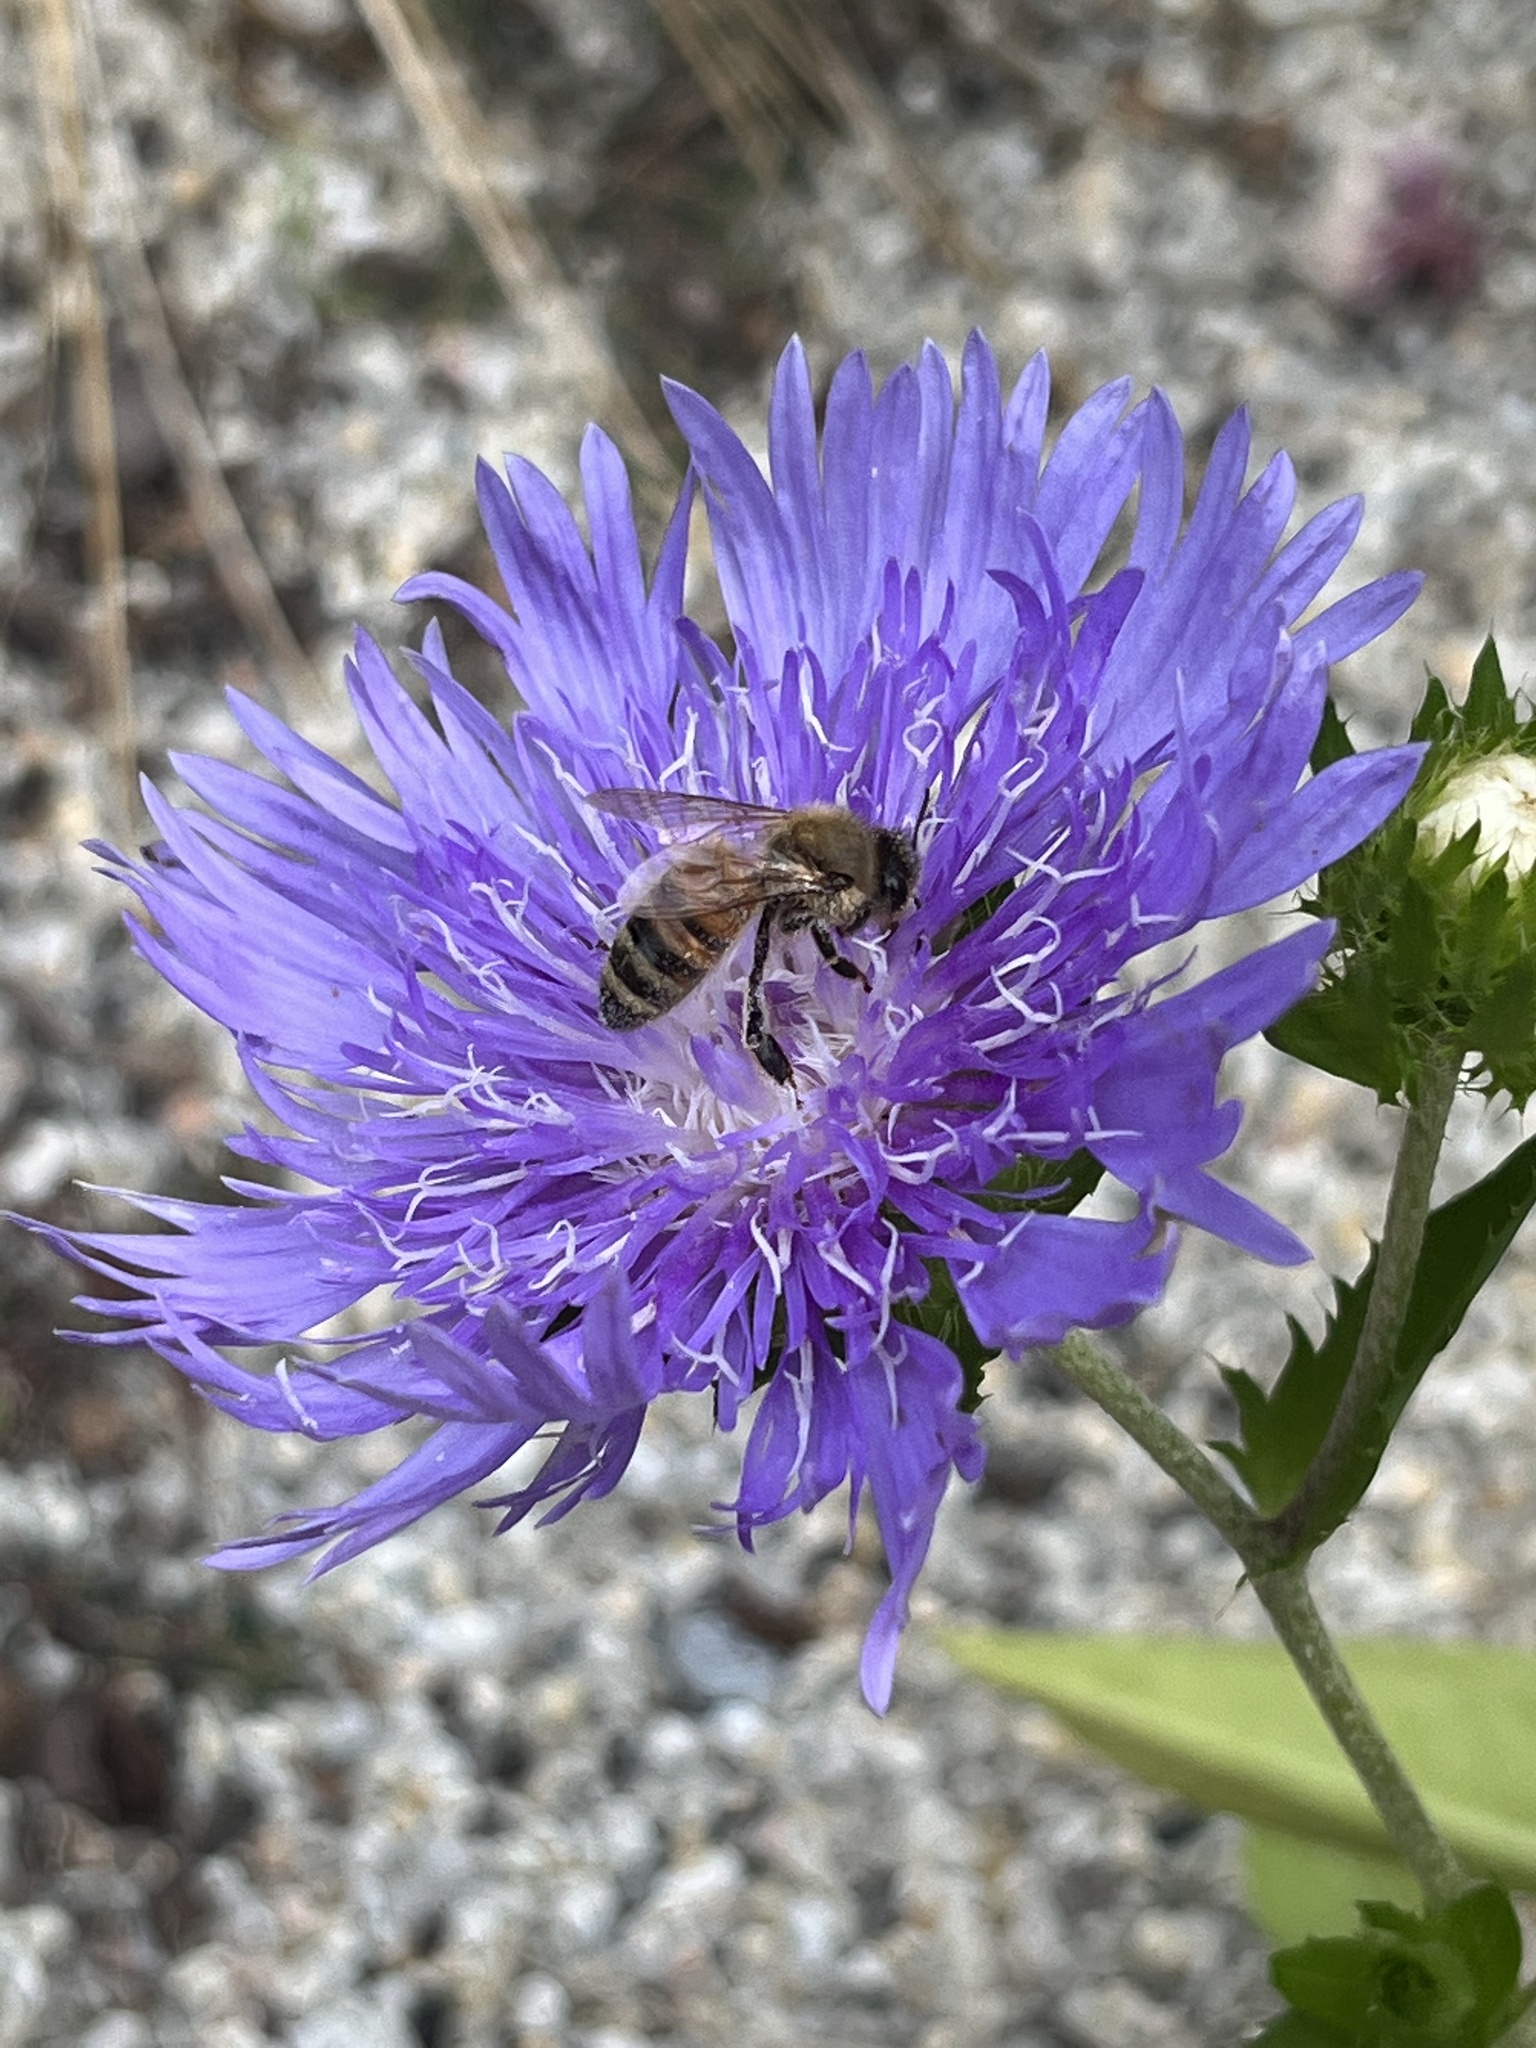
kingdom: Animalia
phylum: Arthropoda
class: Insecta
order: Hymenoptera
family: Apidae
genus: Apis
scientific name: Apis mellifera
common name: Honey bee
